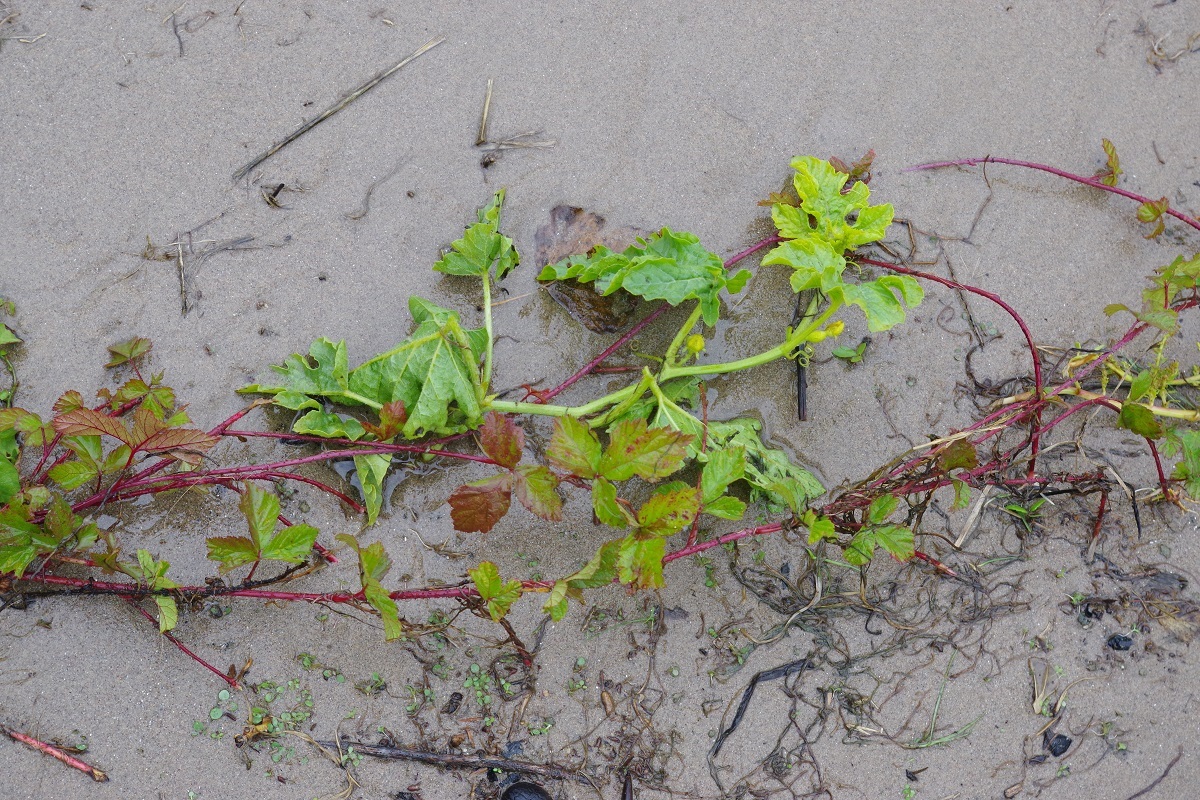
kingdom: Plantae
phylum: Tracheophyta
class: Magnoliopsida
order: Cucurbitales
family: Cucurbitaceae
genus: Citrullus
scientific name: Citrullus lanatus
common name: Watermelon
